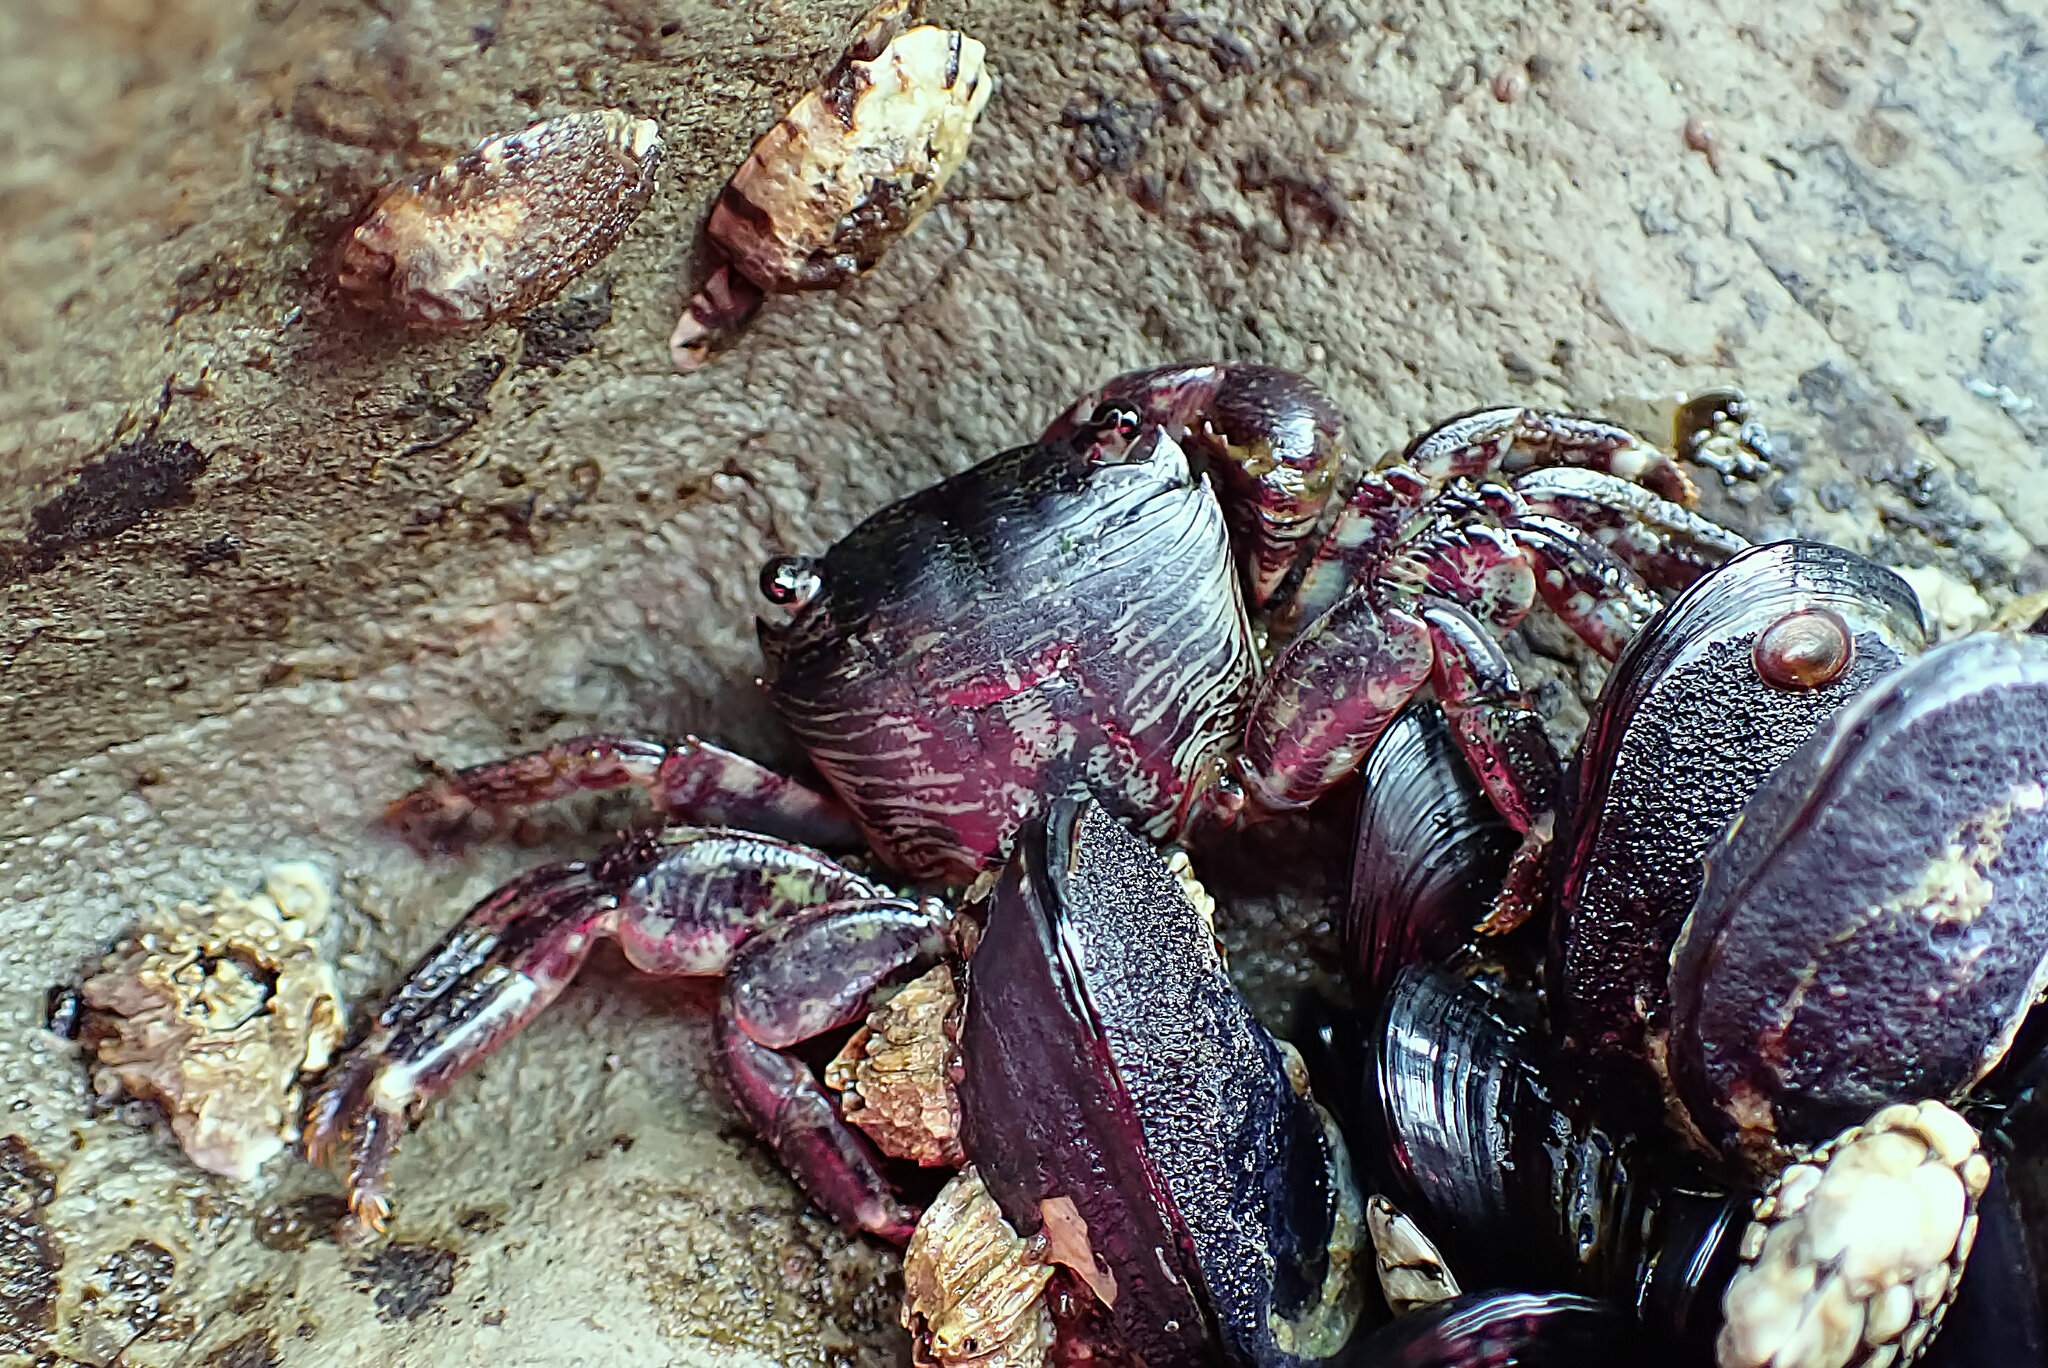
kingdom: Animalia
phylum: Arthropoda
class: Malacostraca
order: Decapoda
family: Grapsidae
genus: Pachygrapsus
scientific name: Pachygrapsus crassipes
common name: Striped shore crab
